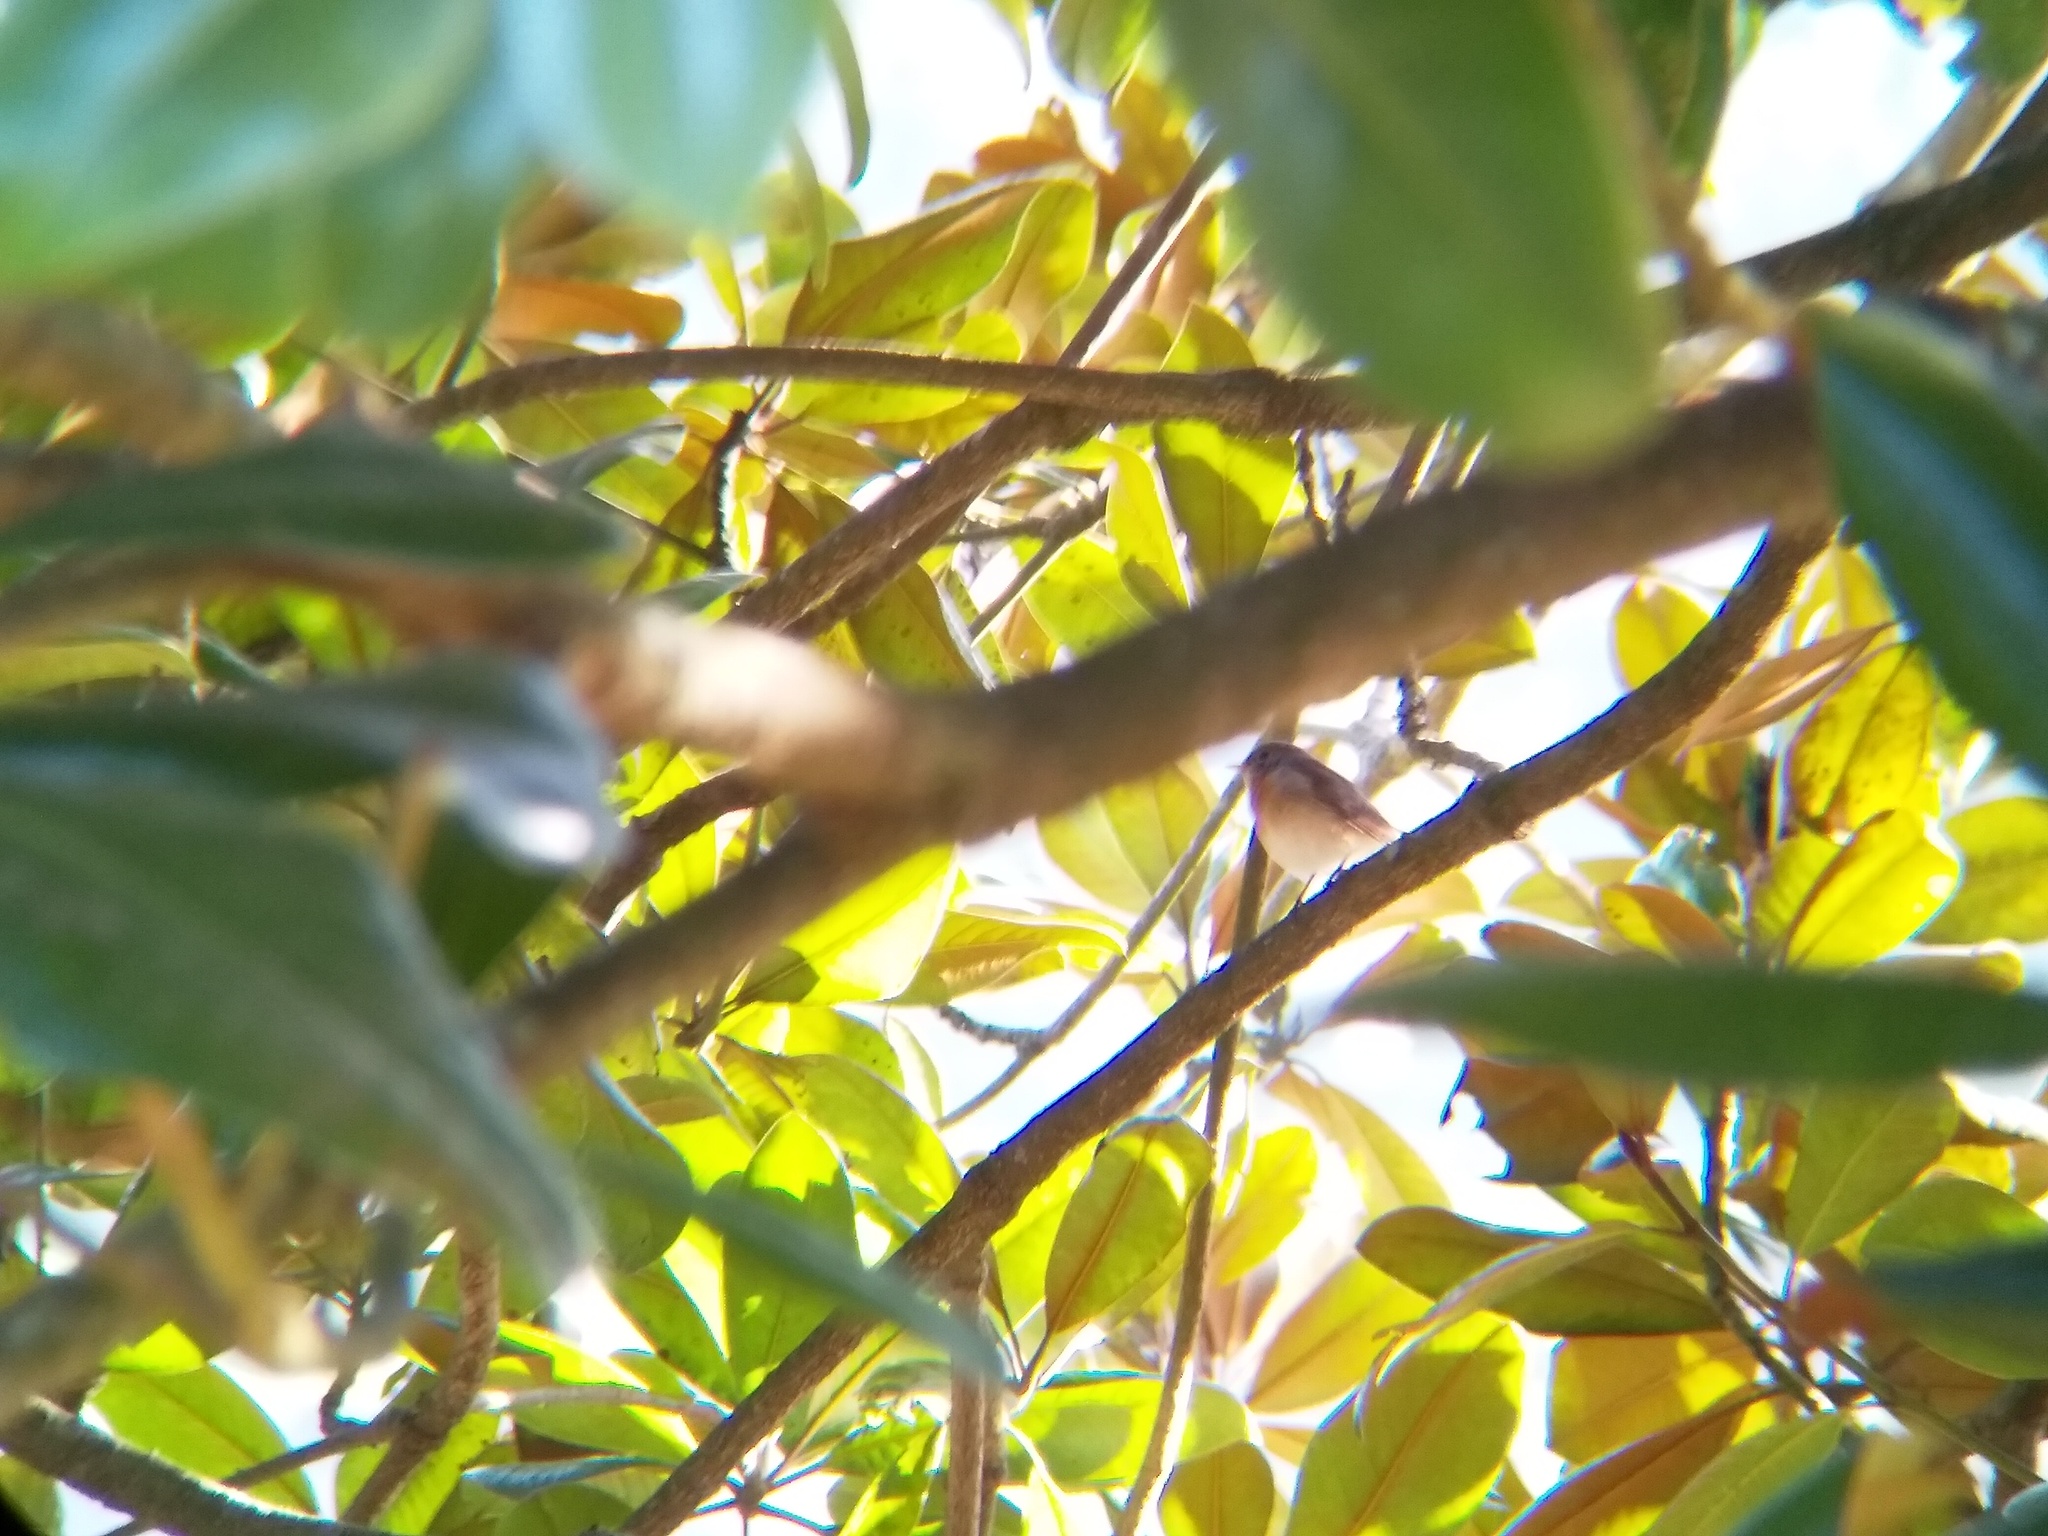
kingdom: Animalia
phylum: Chordata
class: Aves
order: Passeriformes
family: Muscicapidae
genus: Ficedula
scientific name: Ficedula subrubra
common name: Kashmir flycatcher
